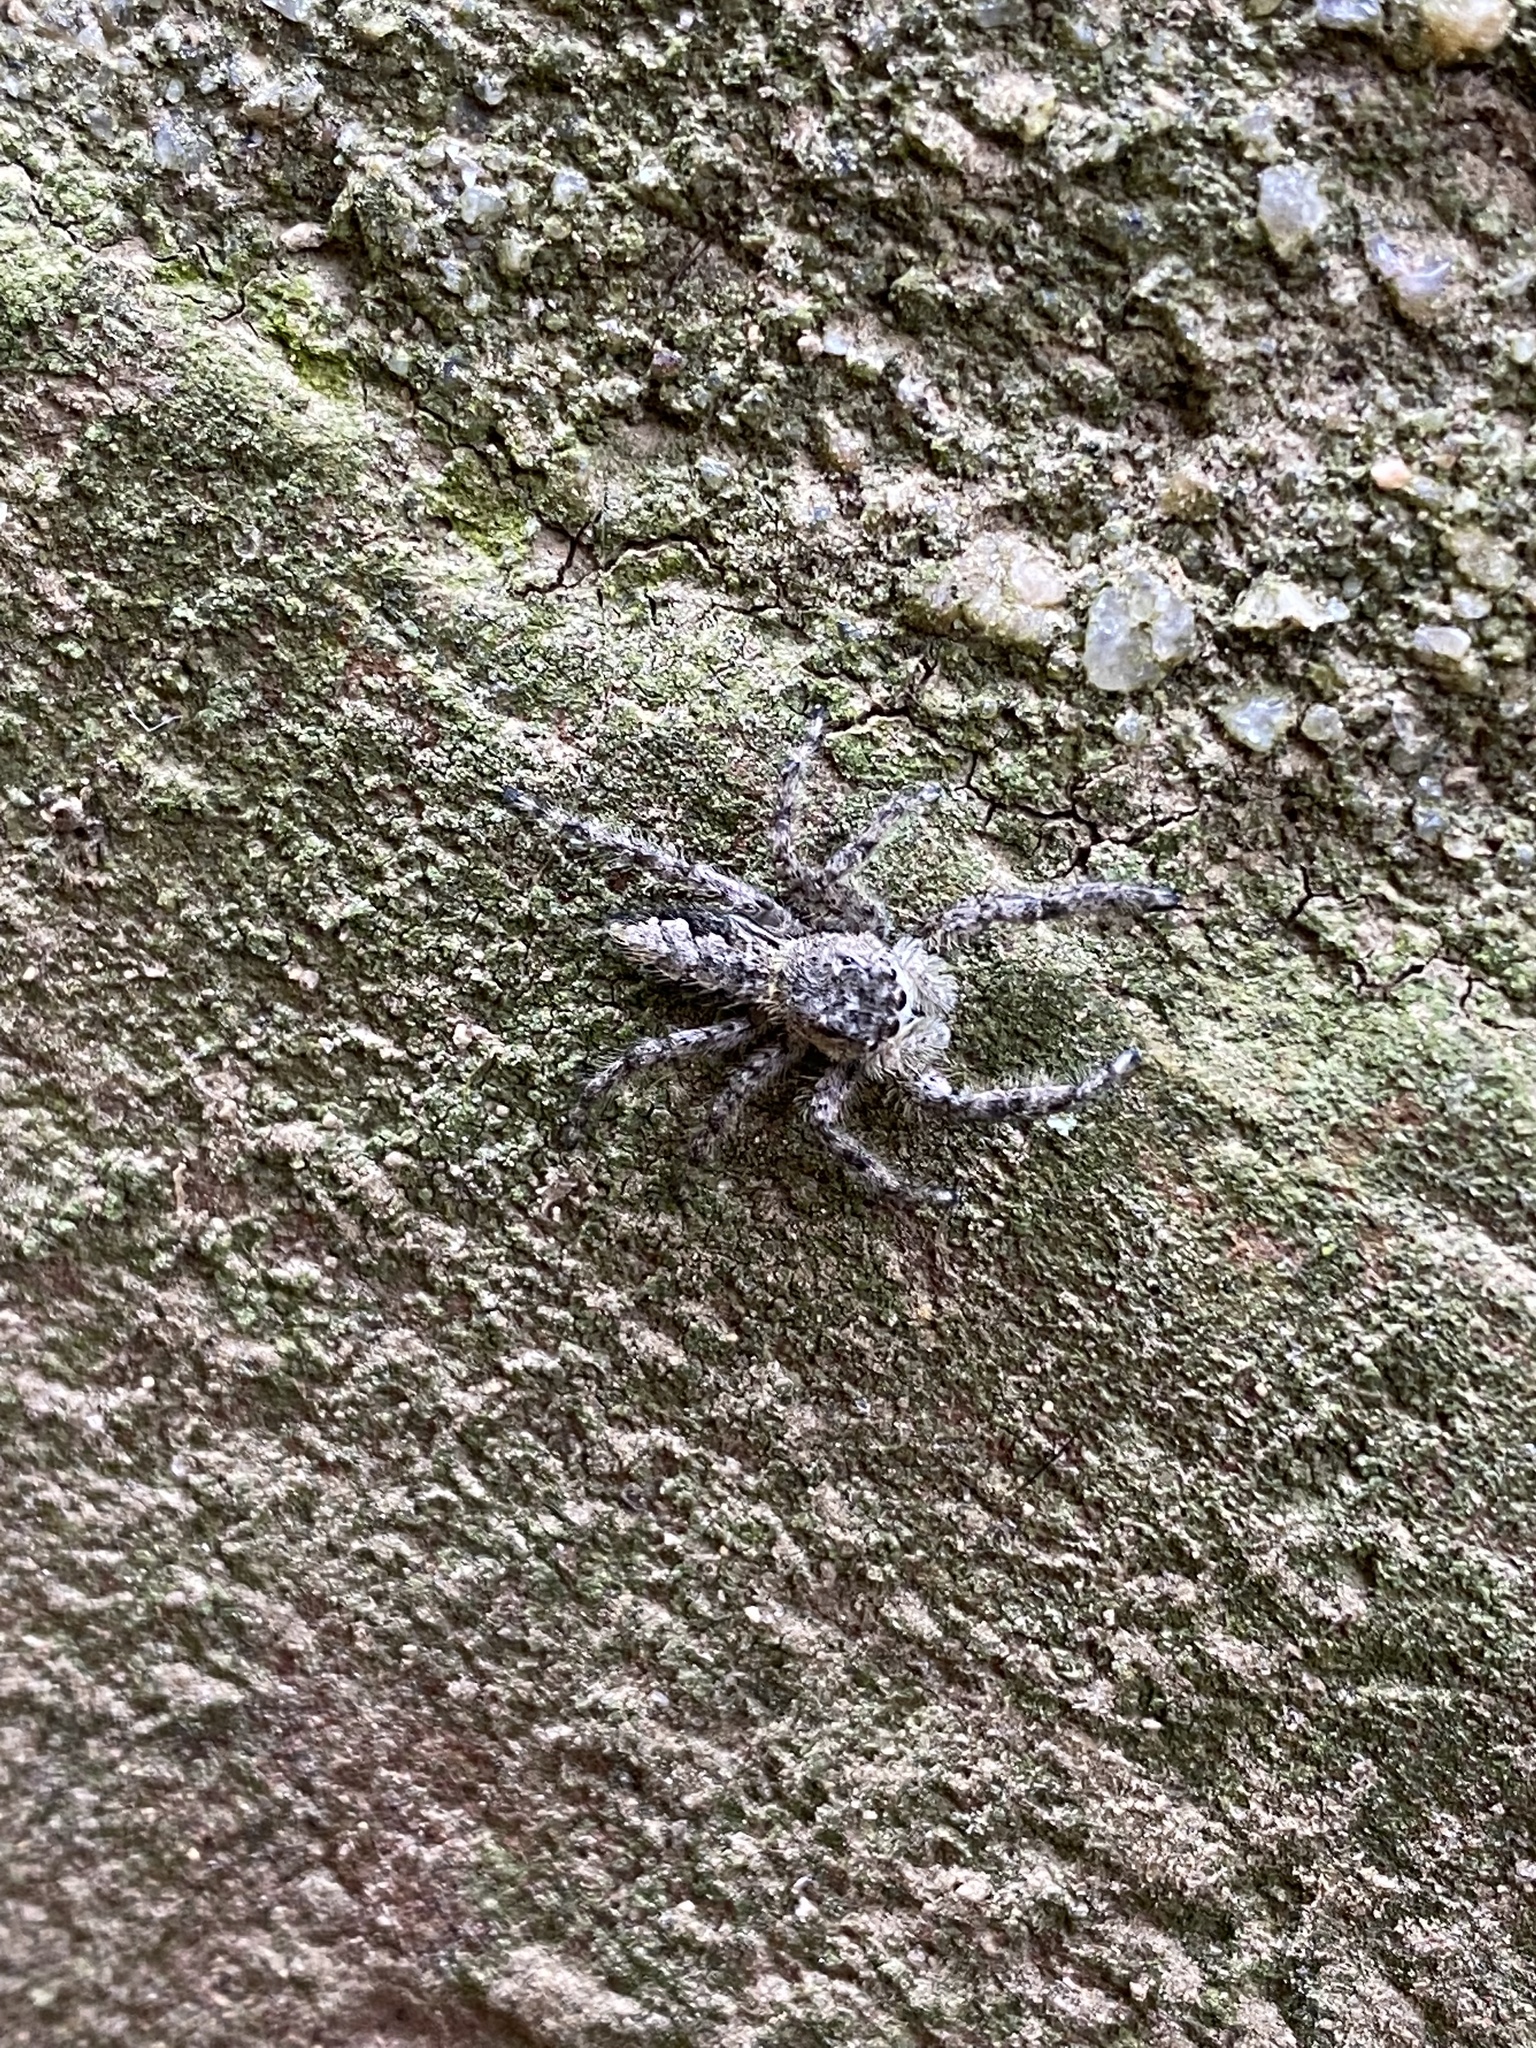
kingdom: Animalia
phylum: Arthropoda
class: Arachnida
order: Araneae
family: Salticidae
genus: Platycryptus
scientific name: Platycryptus undatus
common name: Tan jumping spider
